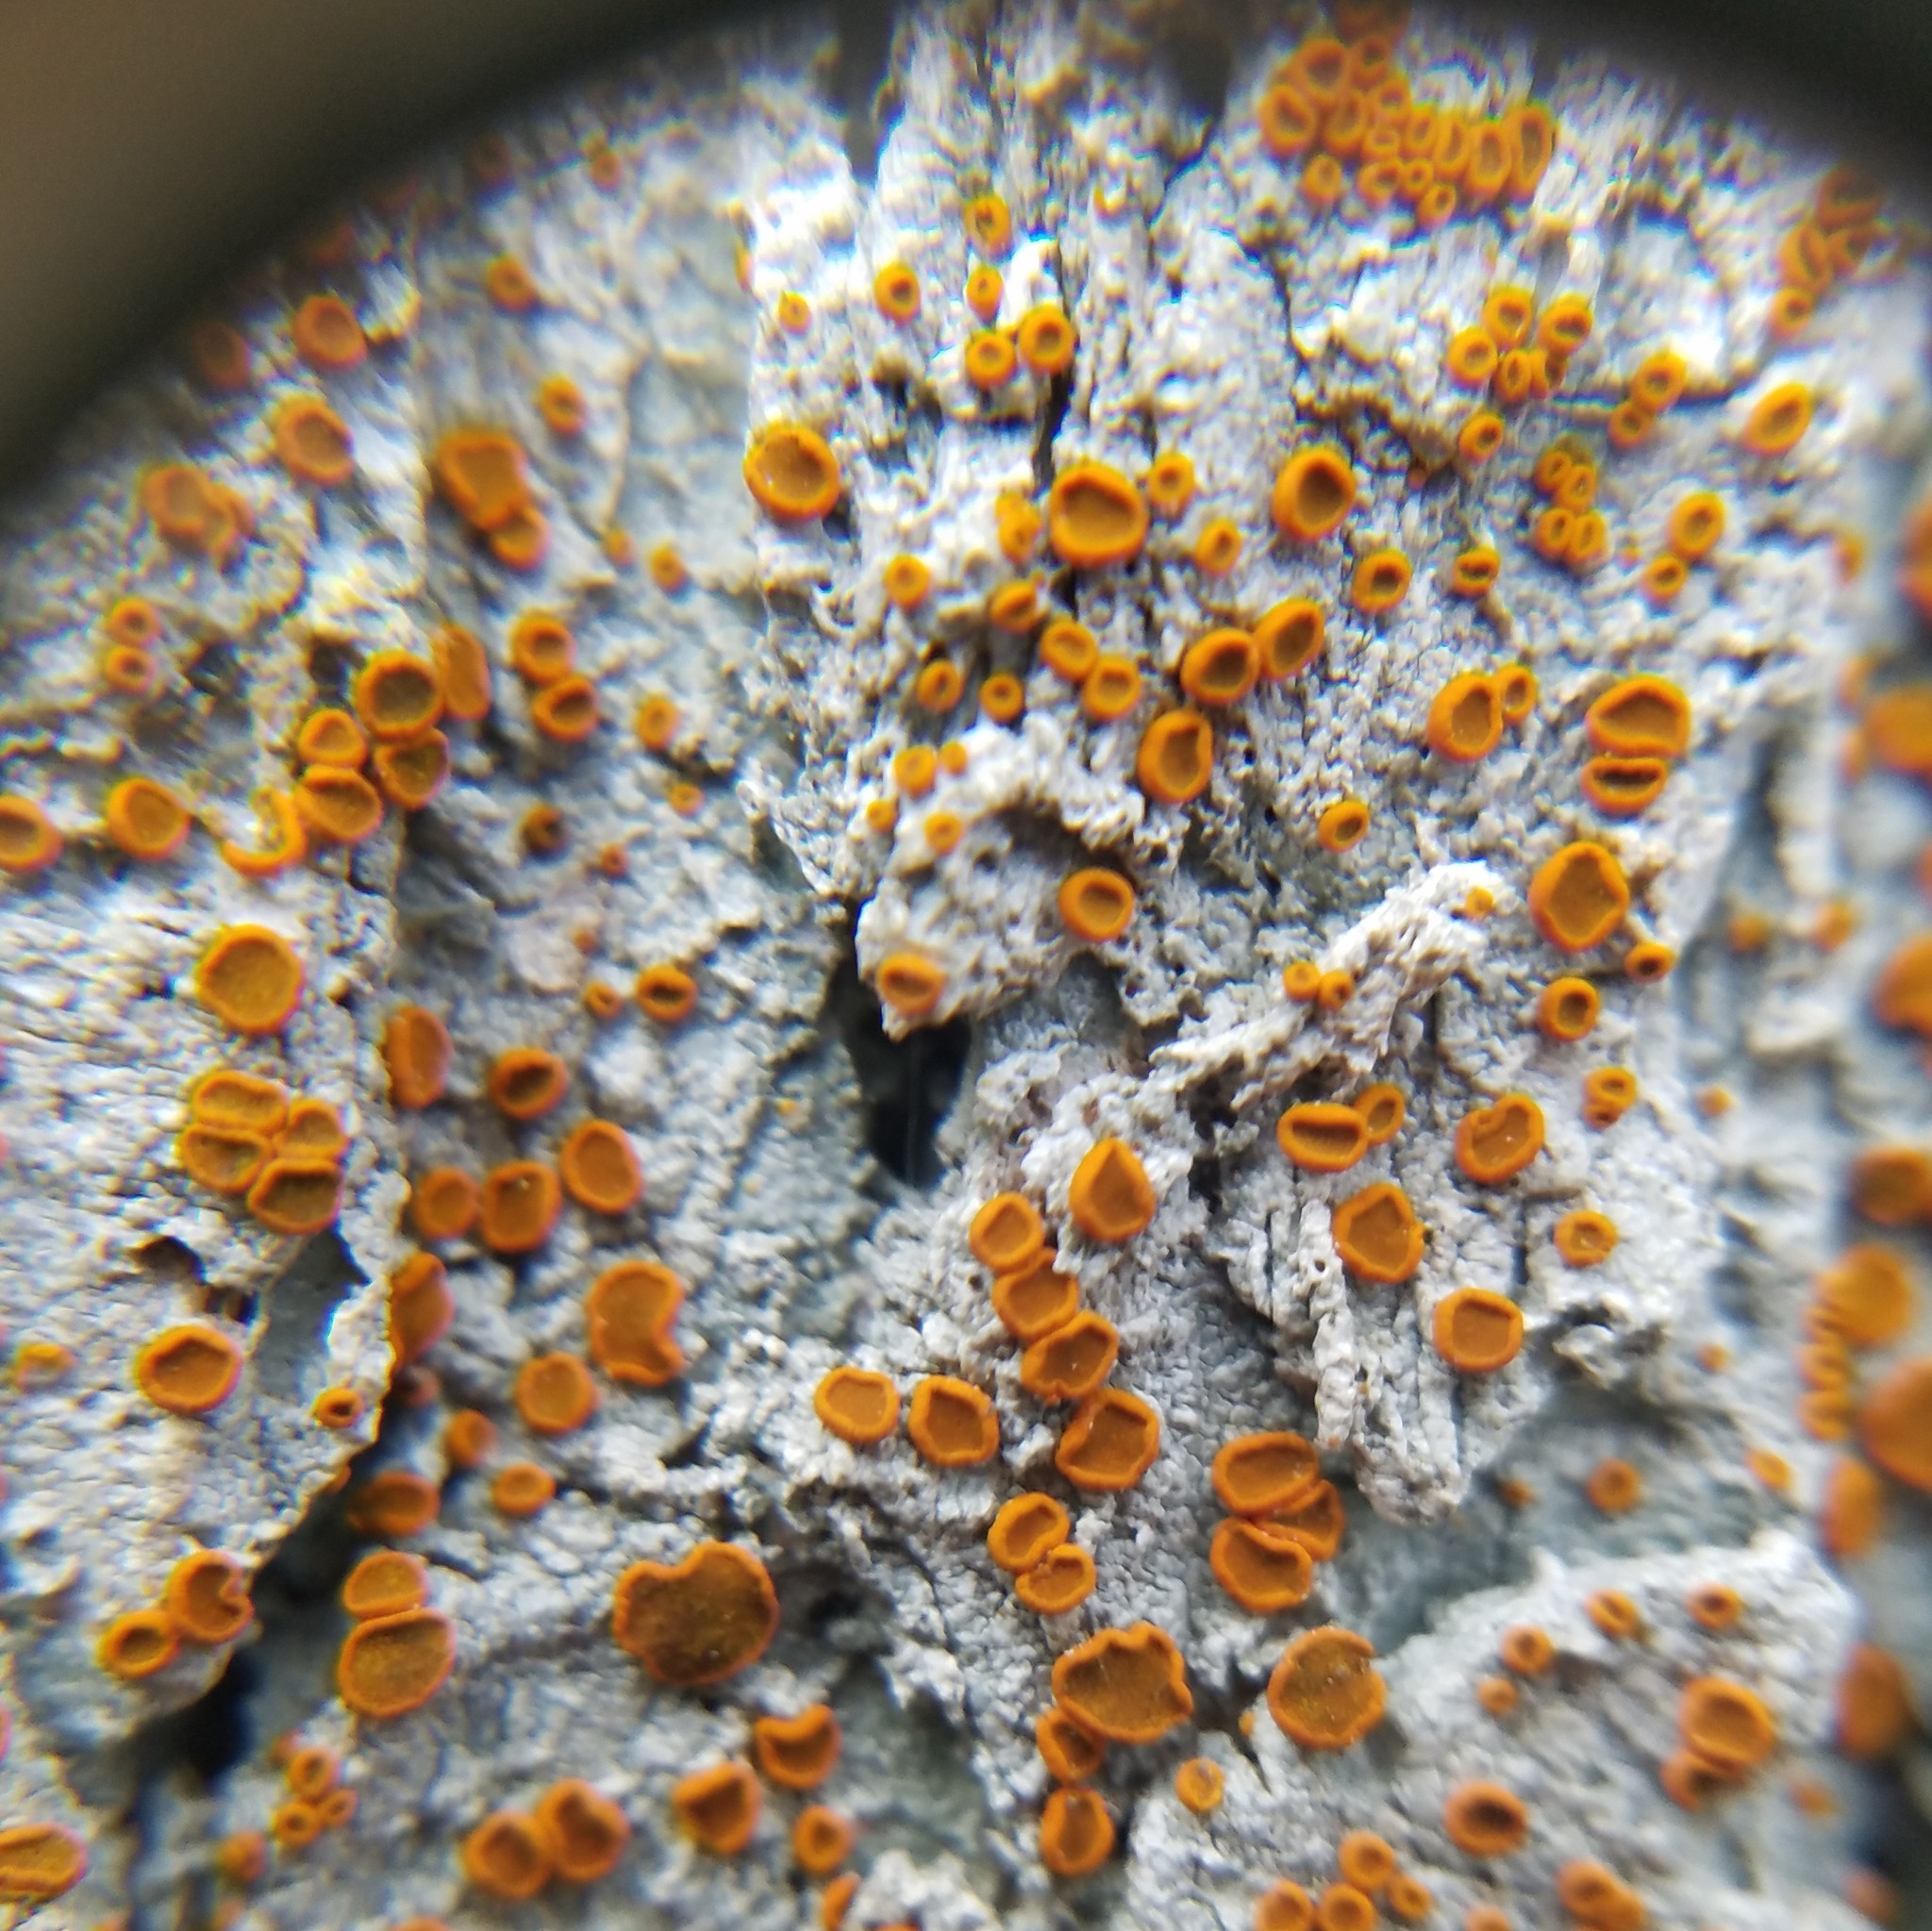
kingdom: Fungi
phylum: Ascomycota
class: Lecanoromycetes
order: Teloschistales
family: Brigantiaeaceae
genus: Brigantiaea
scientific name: Brigantiaea leucoxantha
